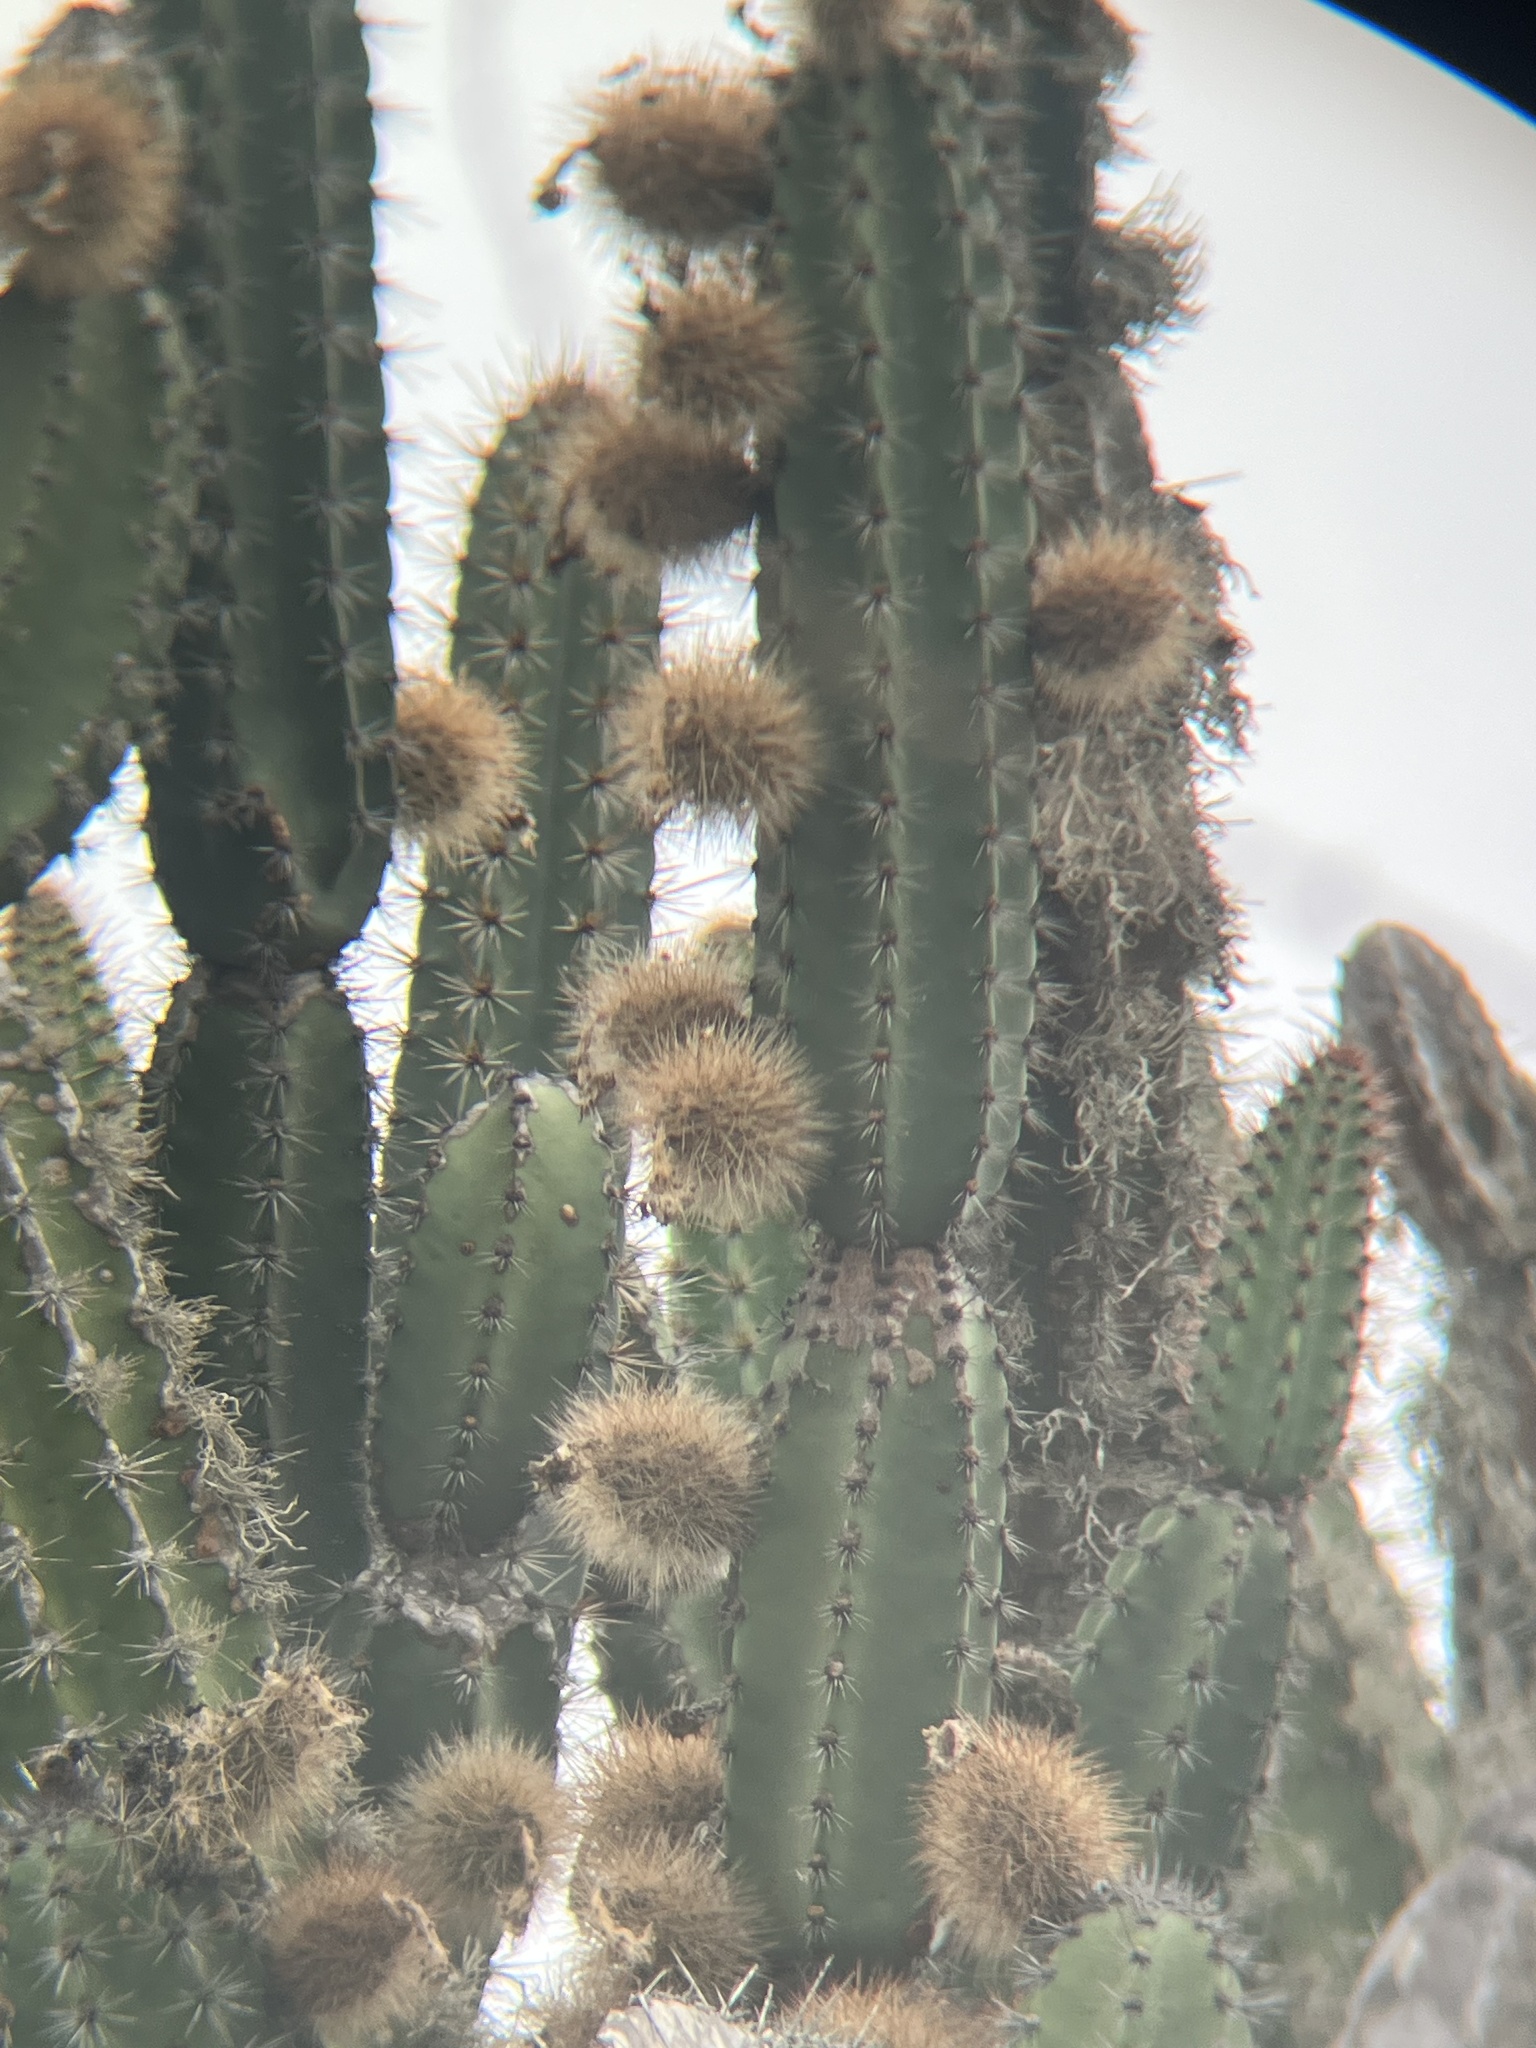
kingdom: Plantae
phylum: Tracheophyta
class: Magnoliopsida
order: Caryophyllales
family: Cactaceae
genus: Armatocereus
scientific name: Armatocereus cartwrightianus
